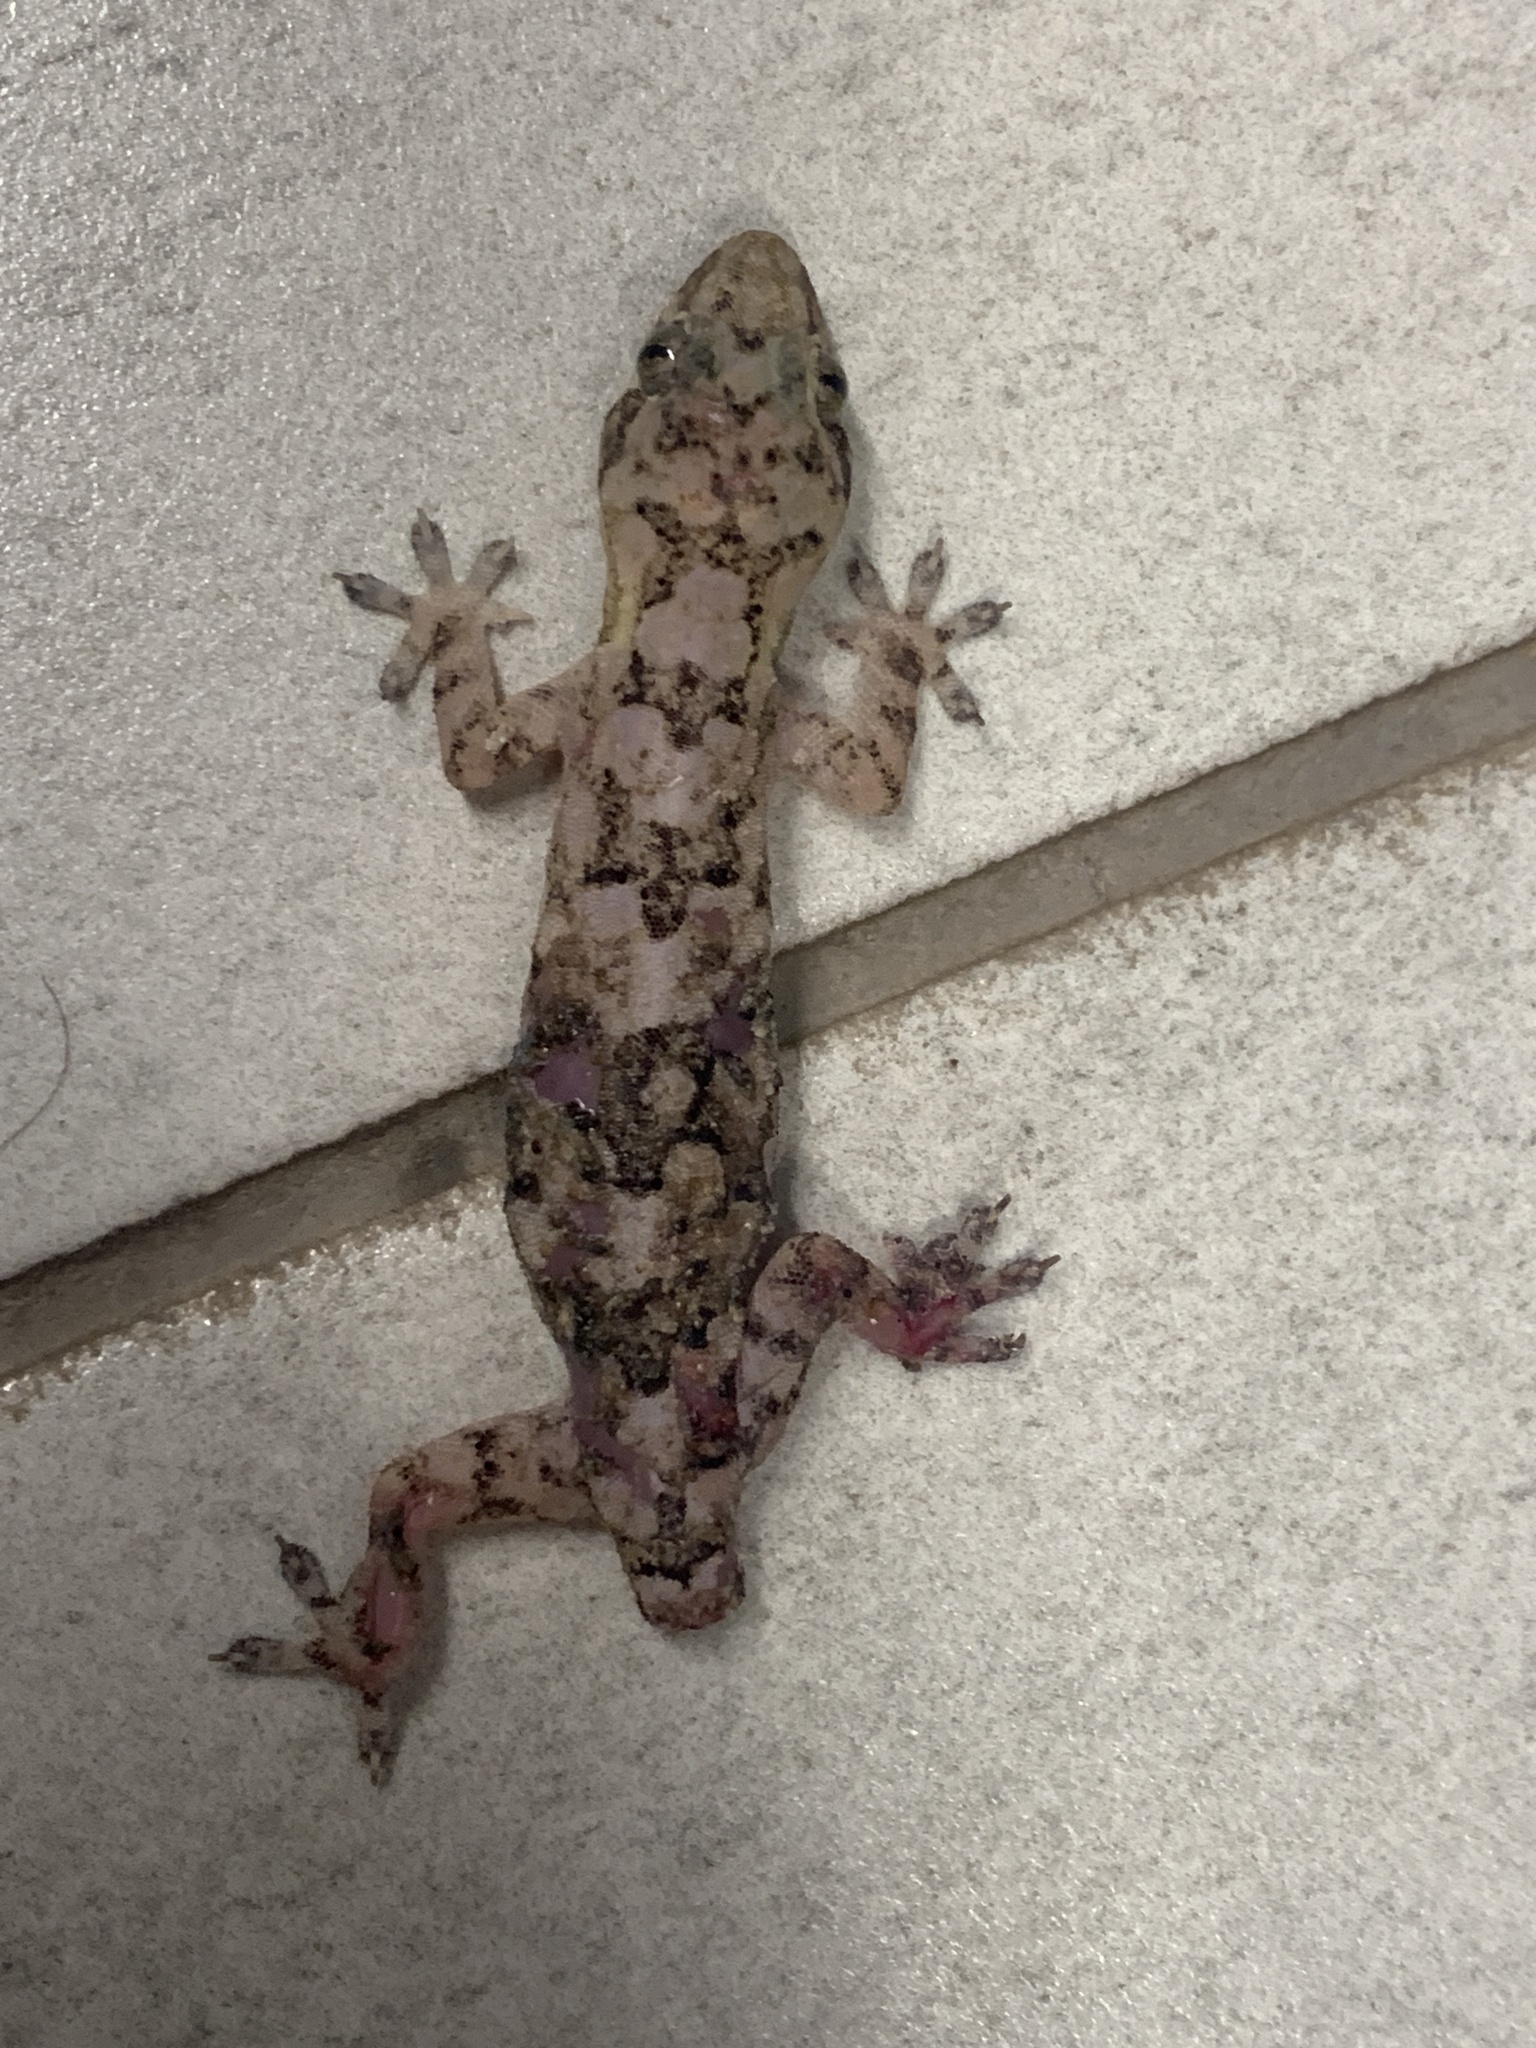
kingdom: Animalia
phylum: Chordata
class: Squamata
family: Gekkonidae
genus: Hemidactylus
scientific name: Hemidactylus mabouia
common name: House gecko
